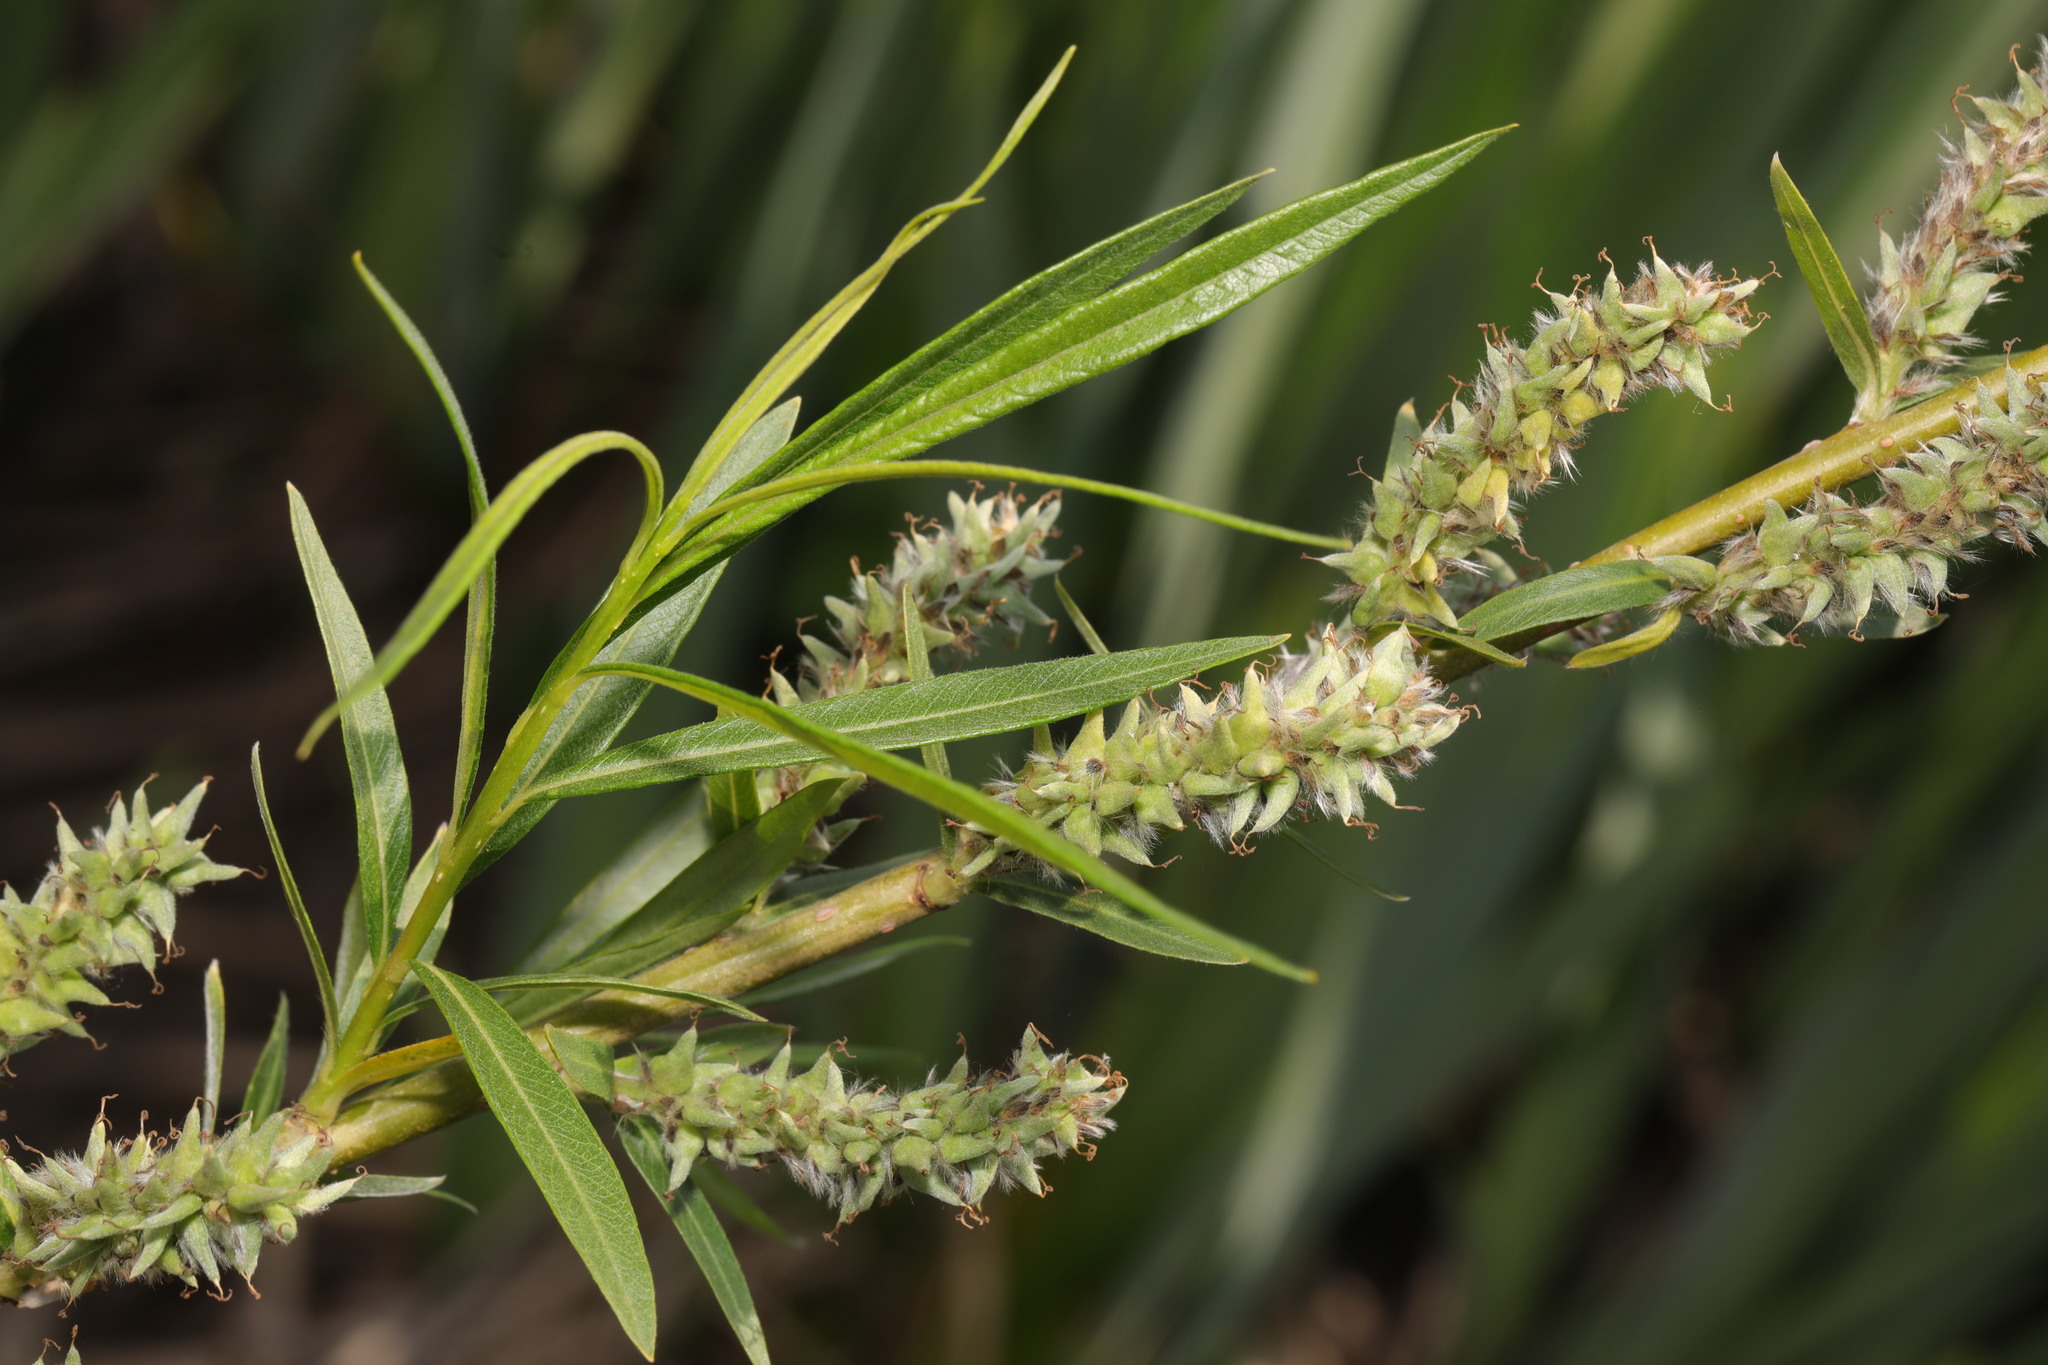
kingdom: Plantae
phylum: Tracheophyta
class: Magnoliopsida
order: Malpighiales
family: Salicaceae
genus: Salix
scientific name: Salix viminalis
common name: Osier
